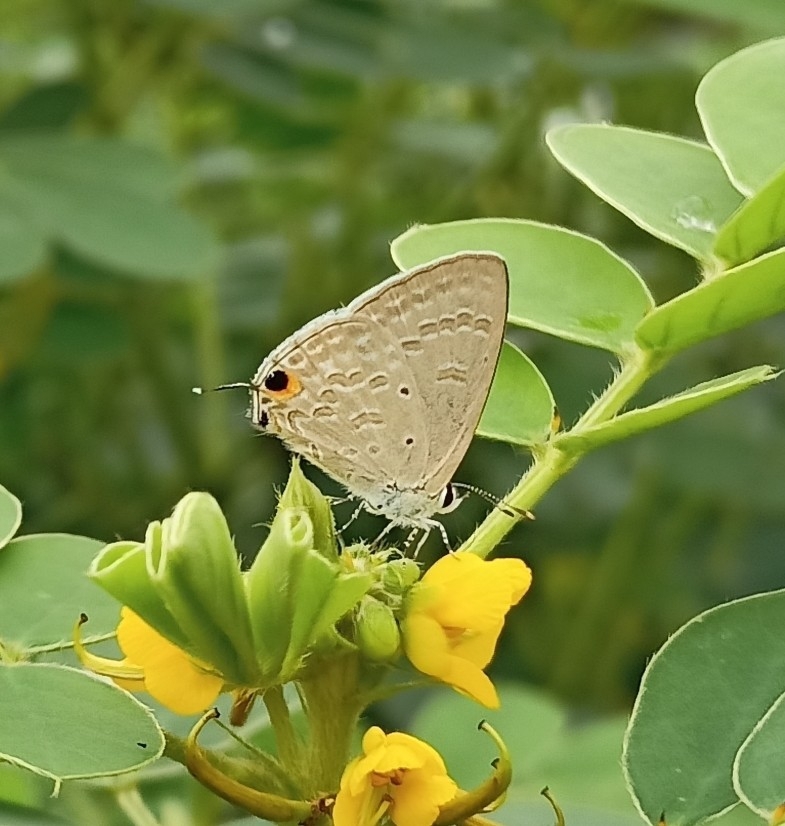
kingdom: Animalia
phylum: Arthropoda
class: Insecta
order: Lepidoptera
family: Lycaenidae
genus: Catochrysops
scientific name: Catochrysops strabo
